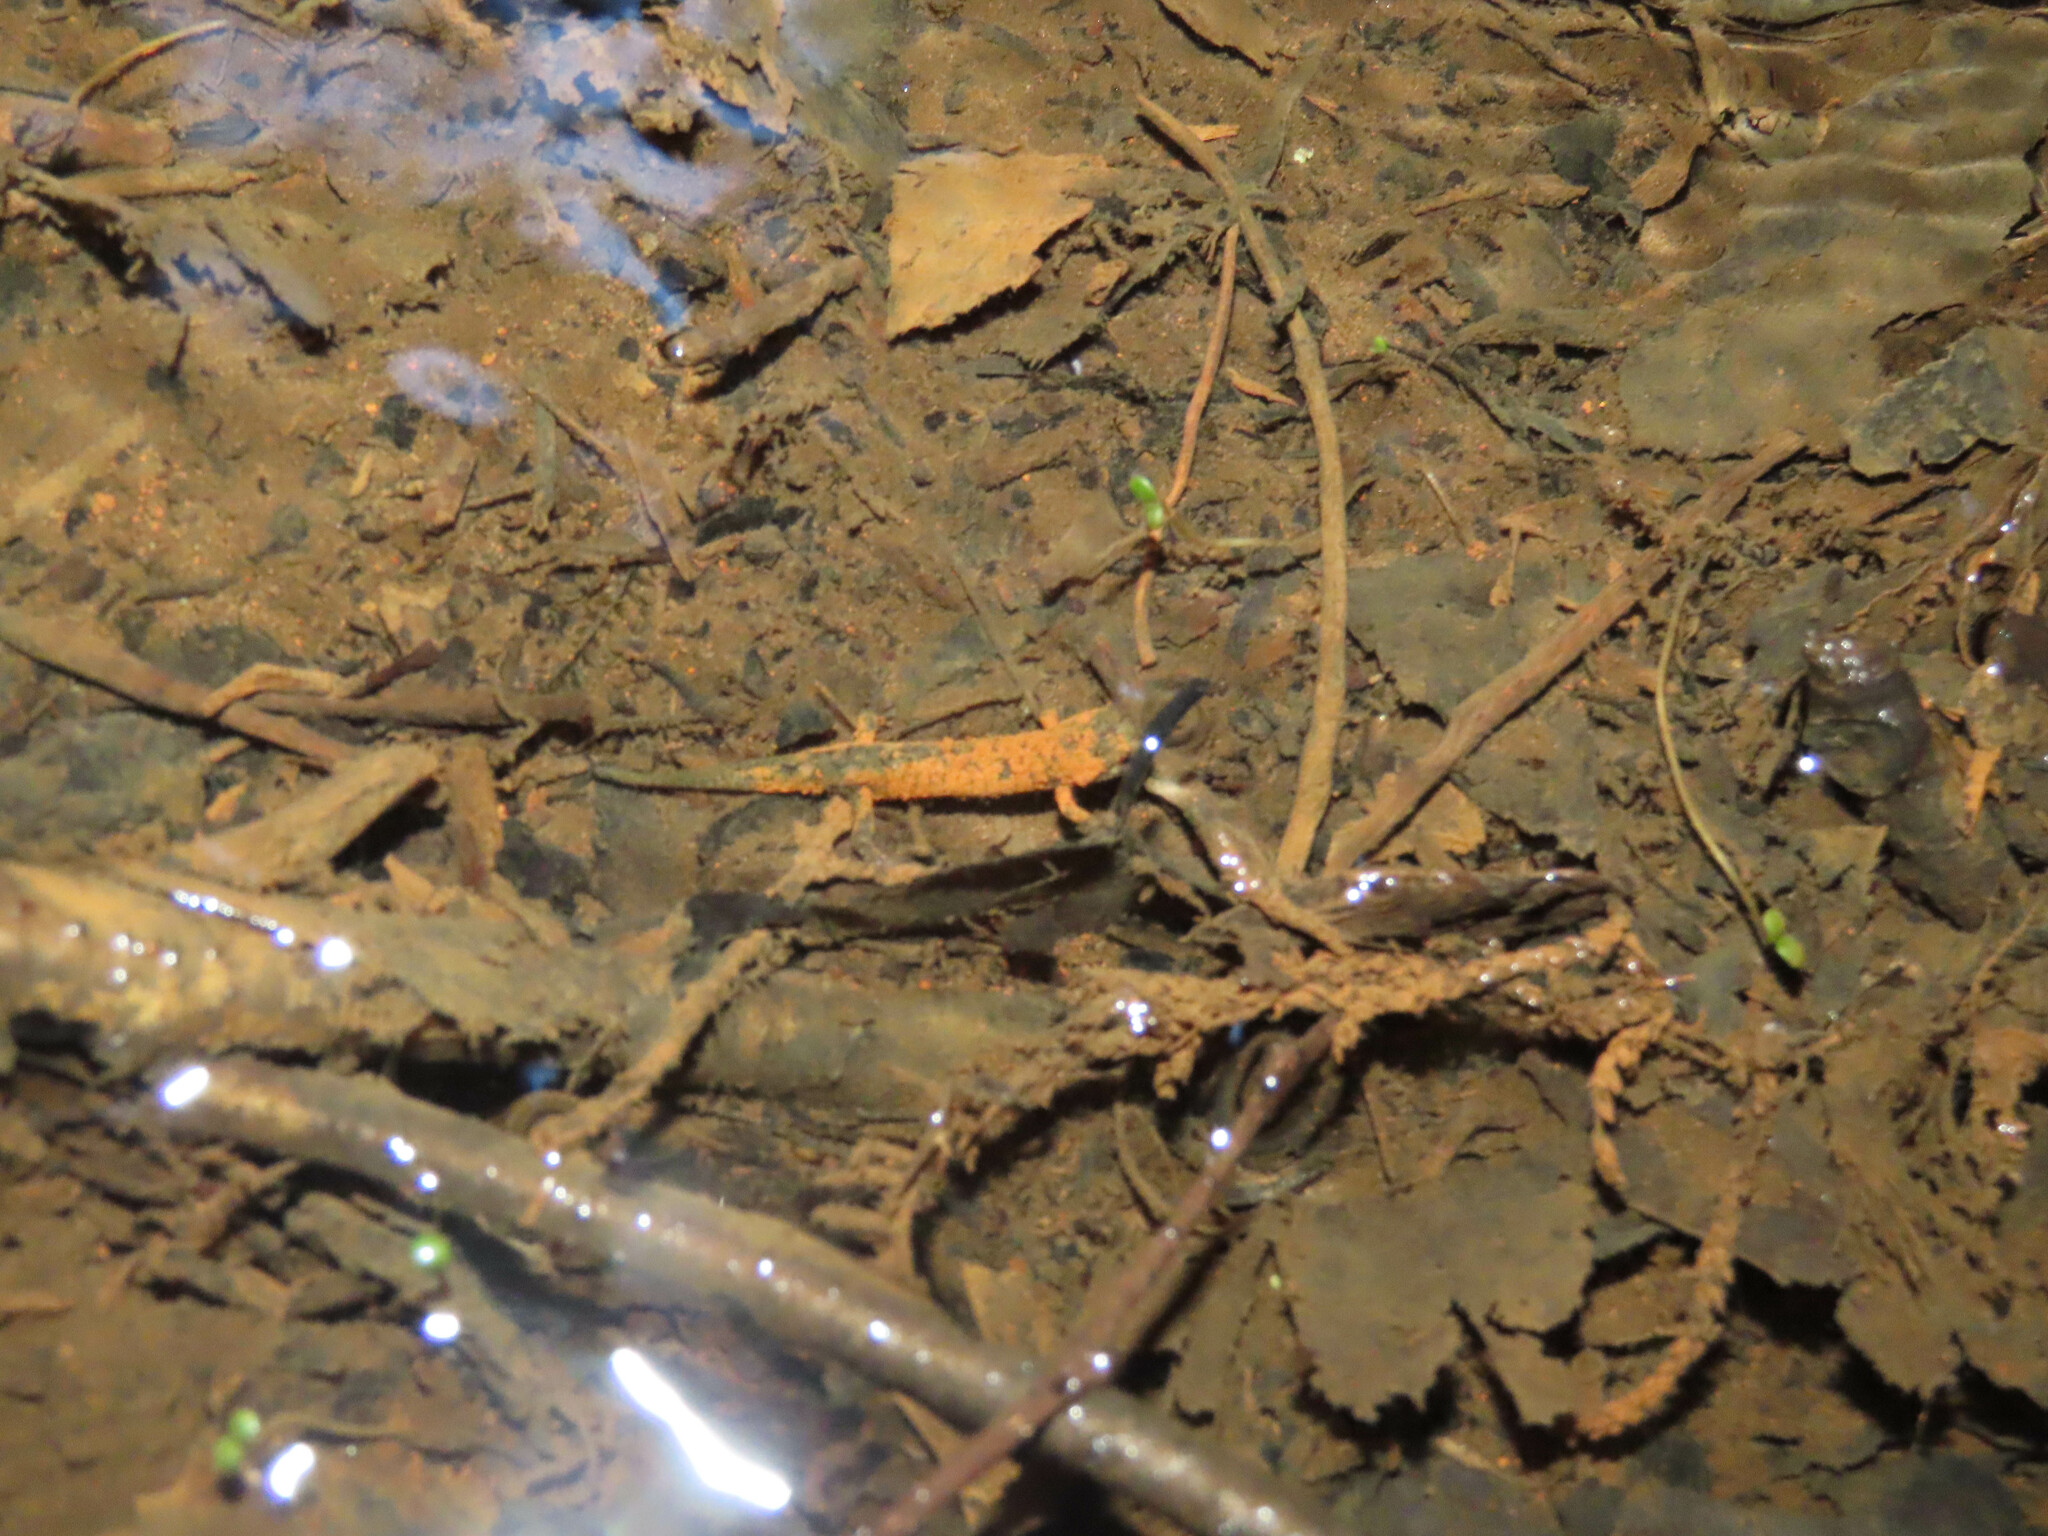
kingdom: Animalia
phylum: Chordata
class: Amphibia
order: Caudata
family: Plethodontidae
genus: Desmognathus
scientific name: Desmognathus monticola
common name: Seal salamander
